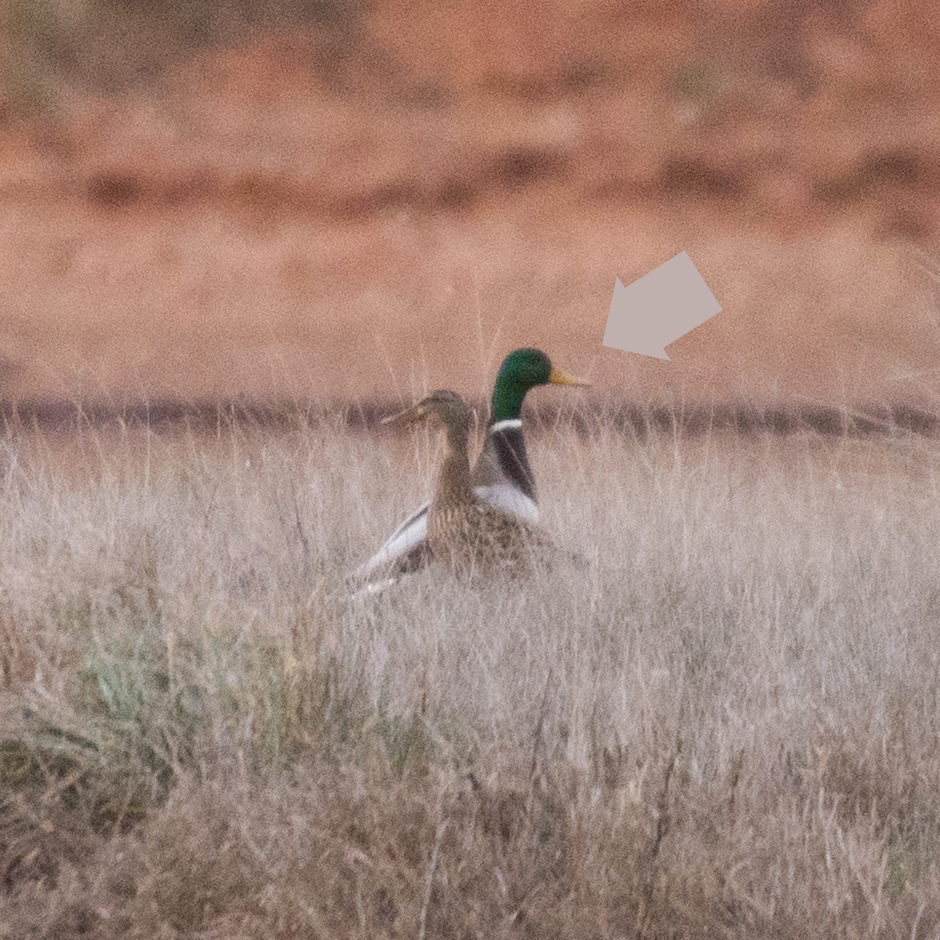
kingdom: Animalia
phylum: Chordata
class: Aves
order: Anseriformes
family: Anatidae
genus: Anas
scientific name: Anas platyrhynchos
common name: Mallard
